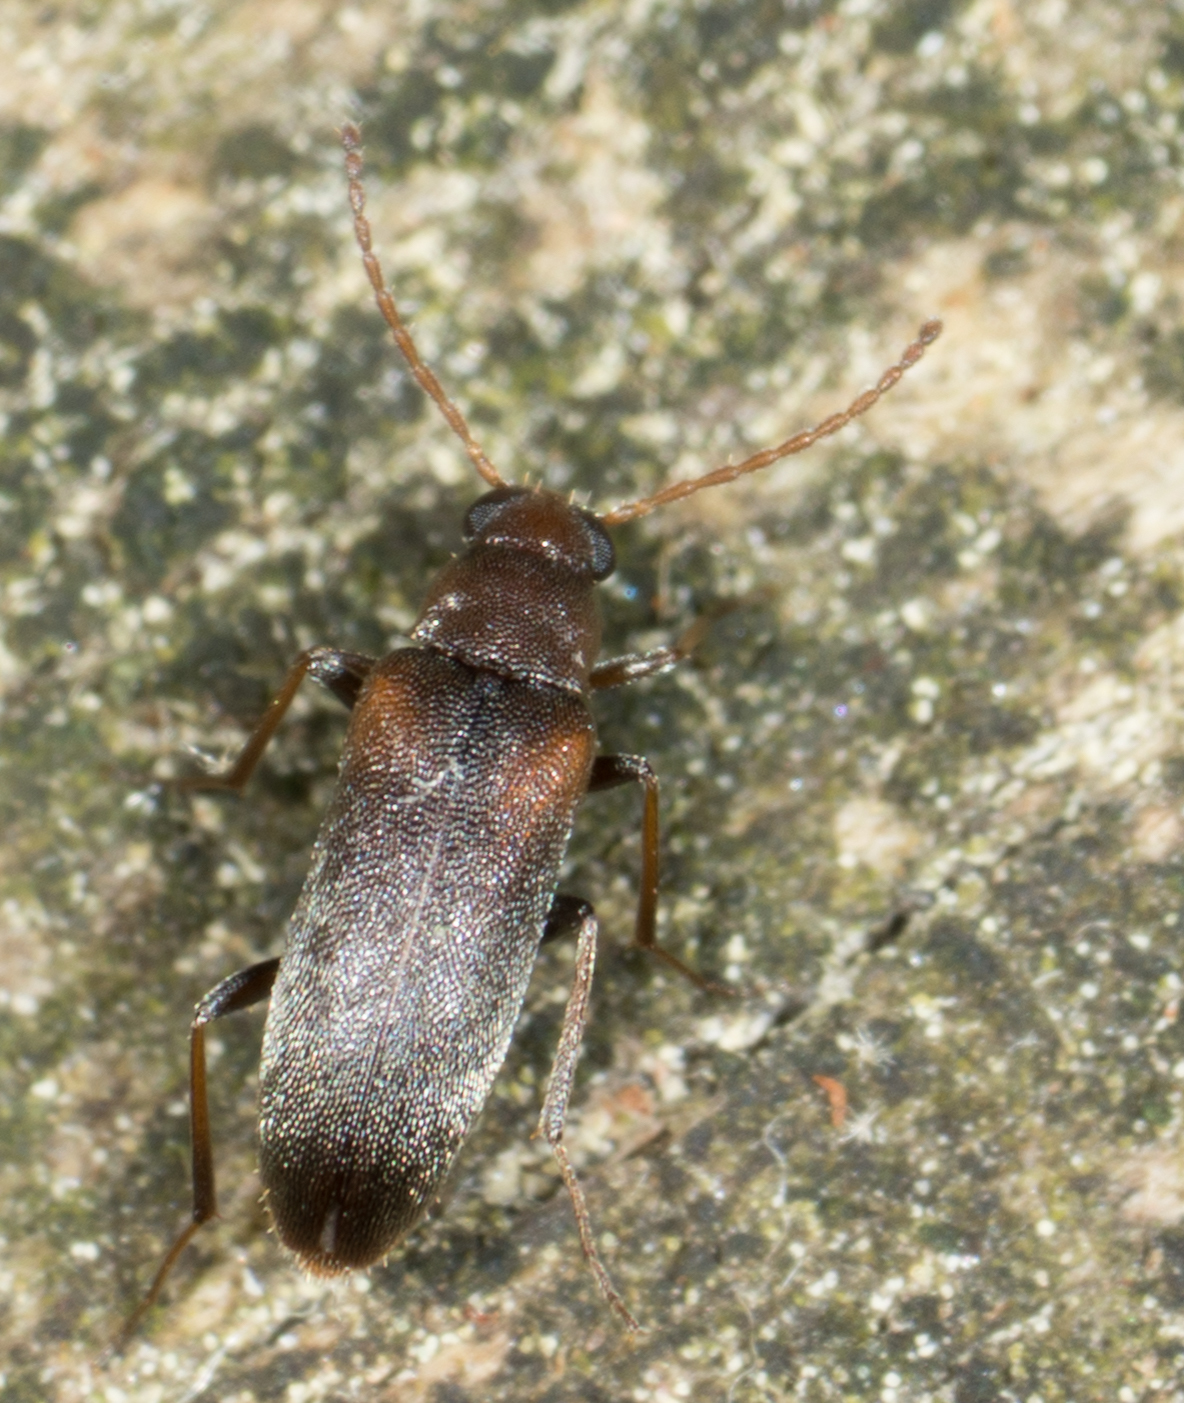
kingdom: Animalia
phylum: Arthropoda
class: Insecta
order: Coleoptera
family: Melandryidae
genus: Microtonus
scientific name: Microtonus sericans
